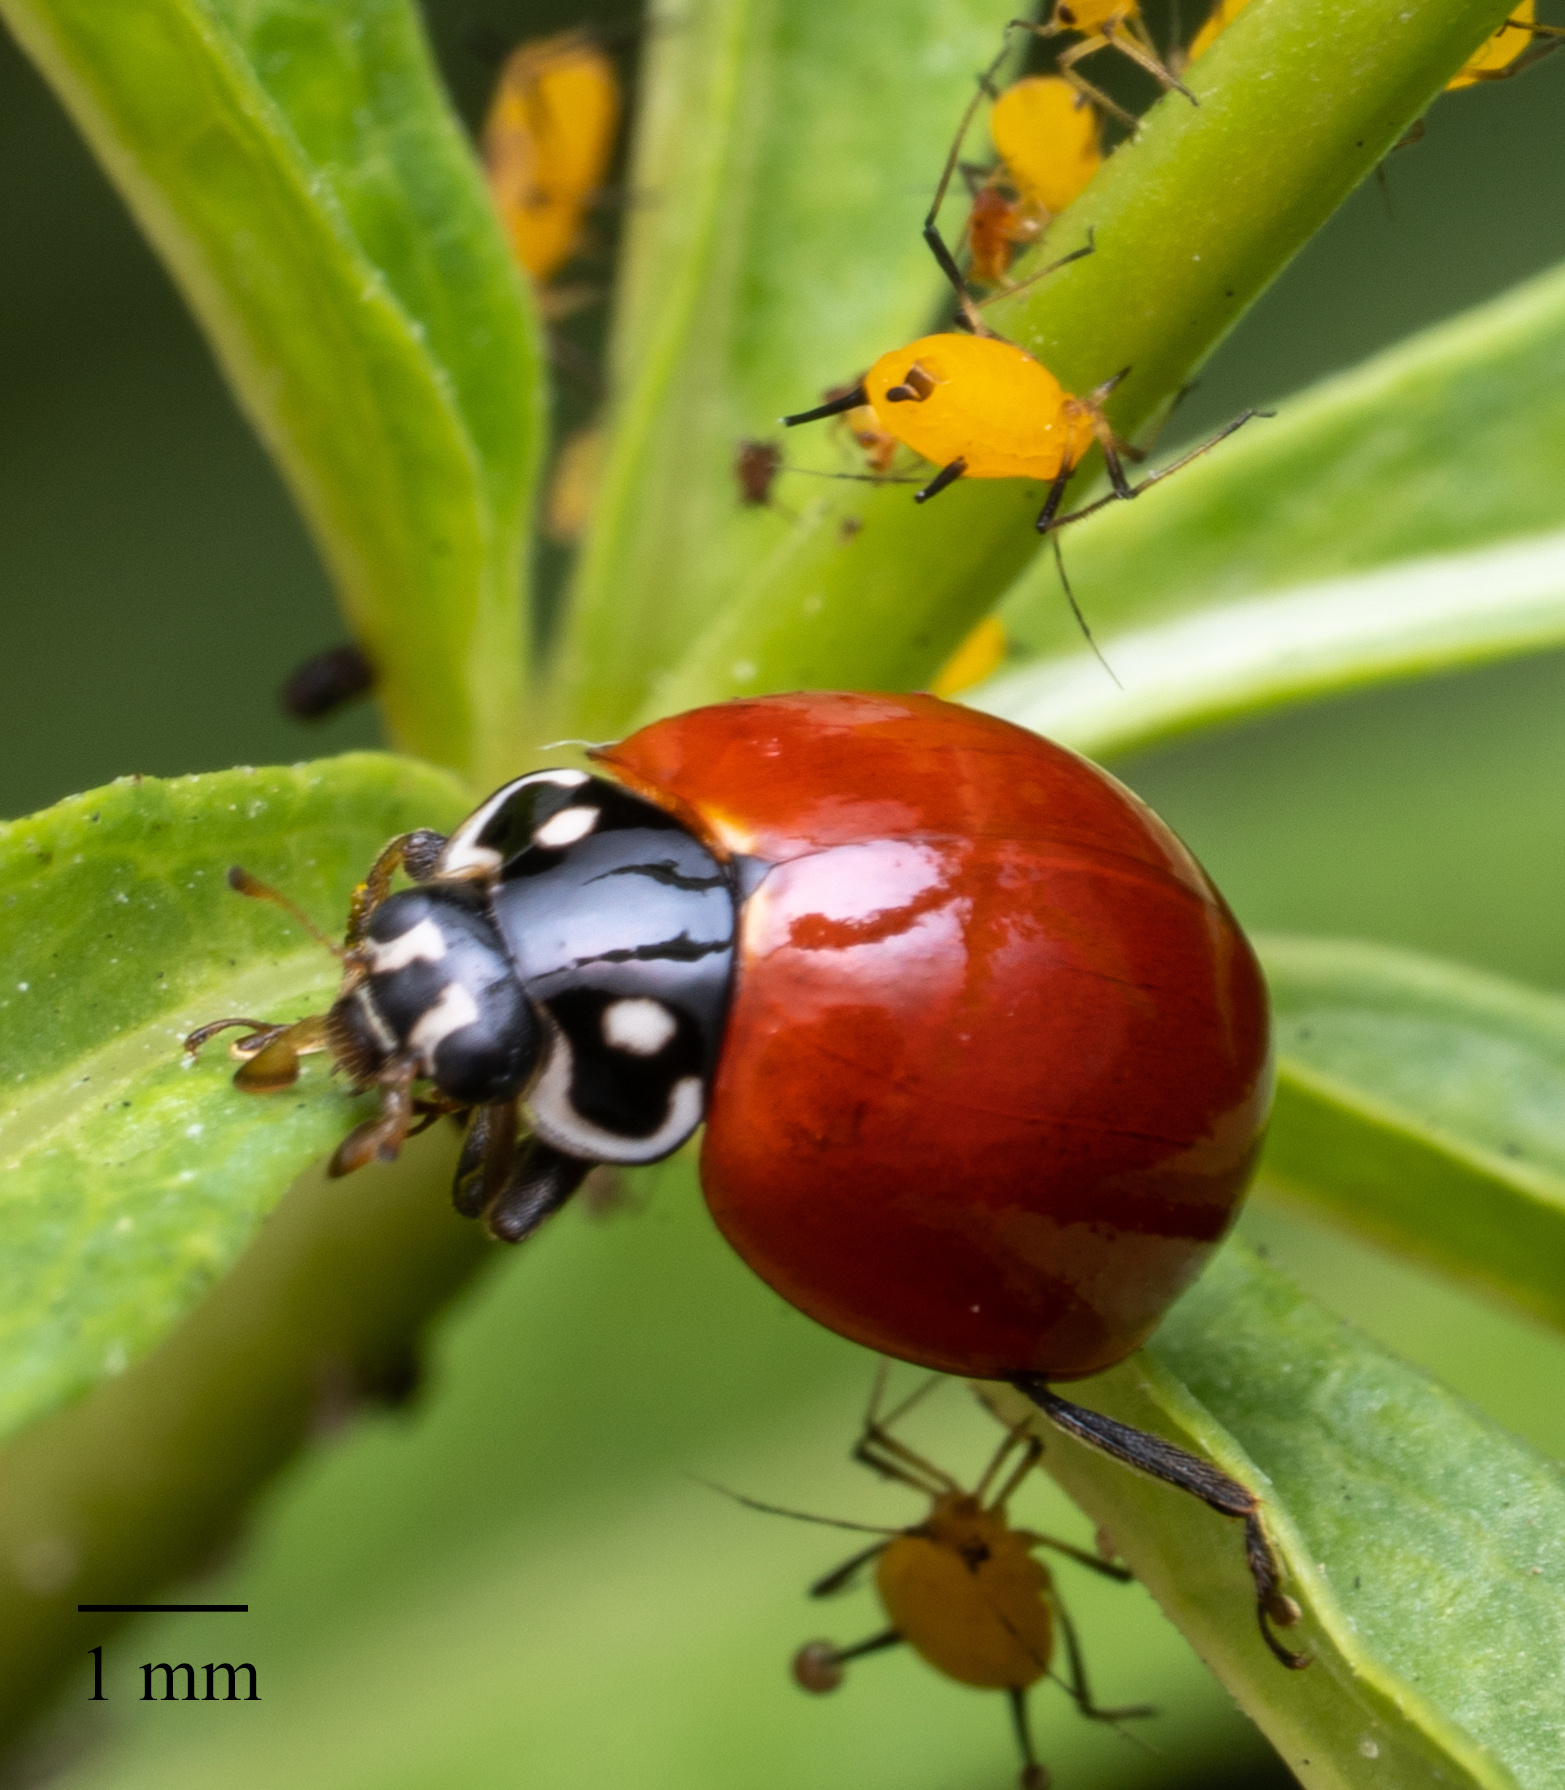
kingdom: Animalia
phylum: Arthropoda
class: Insecta
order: Coleoptera
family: Coccinellidae
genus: Cycloneda
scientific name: Cycloneda sanguinea
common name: Ladybird beetle
